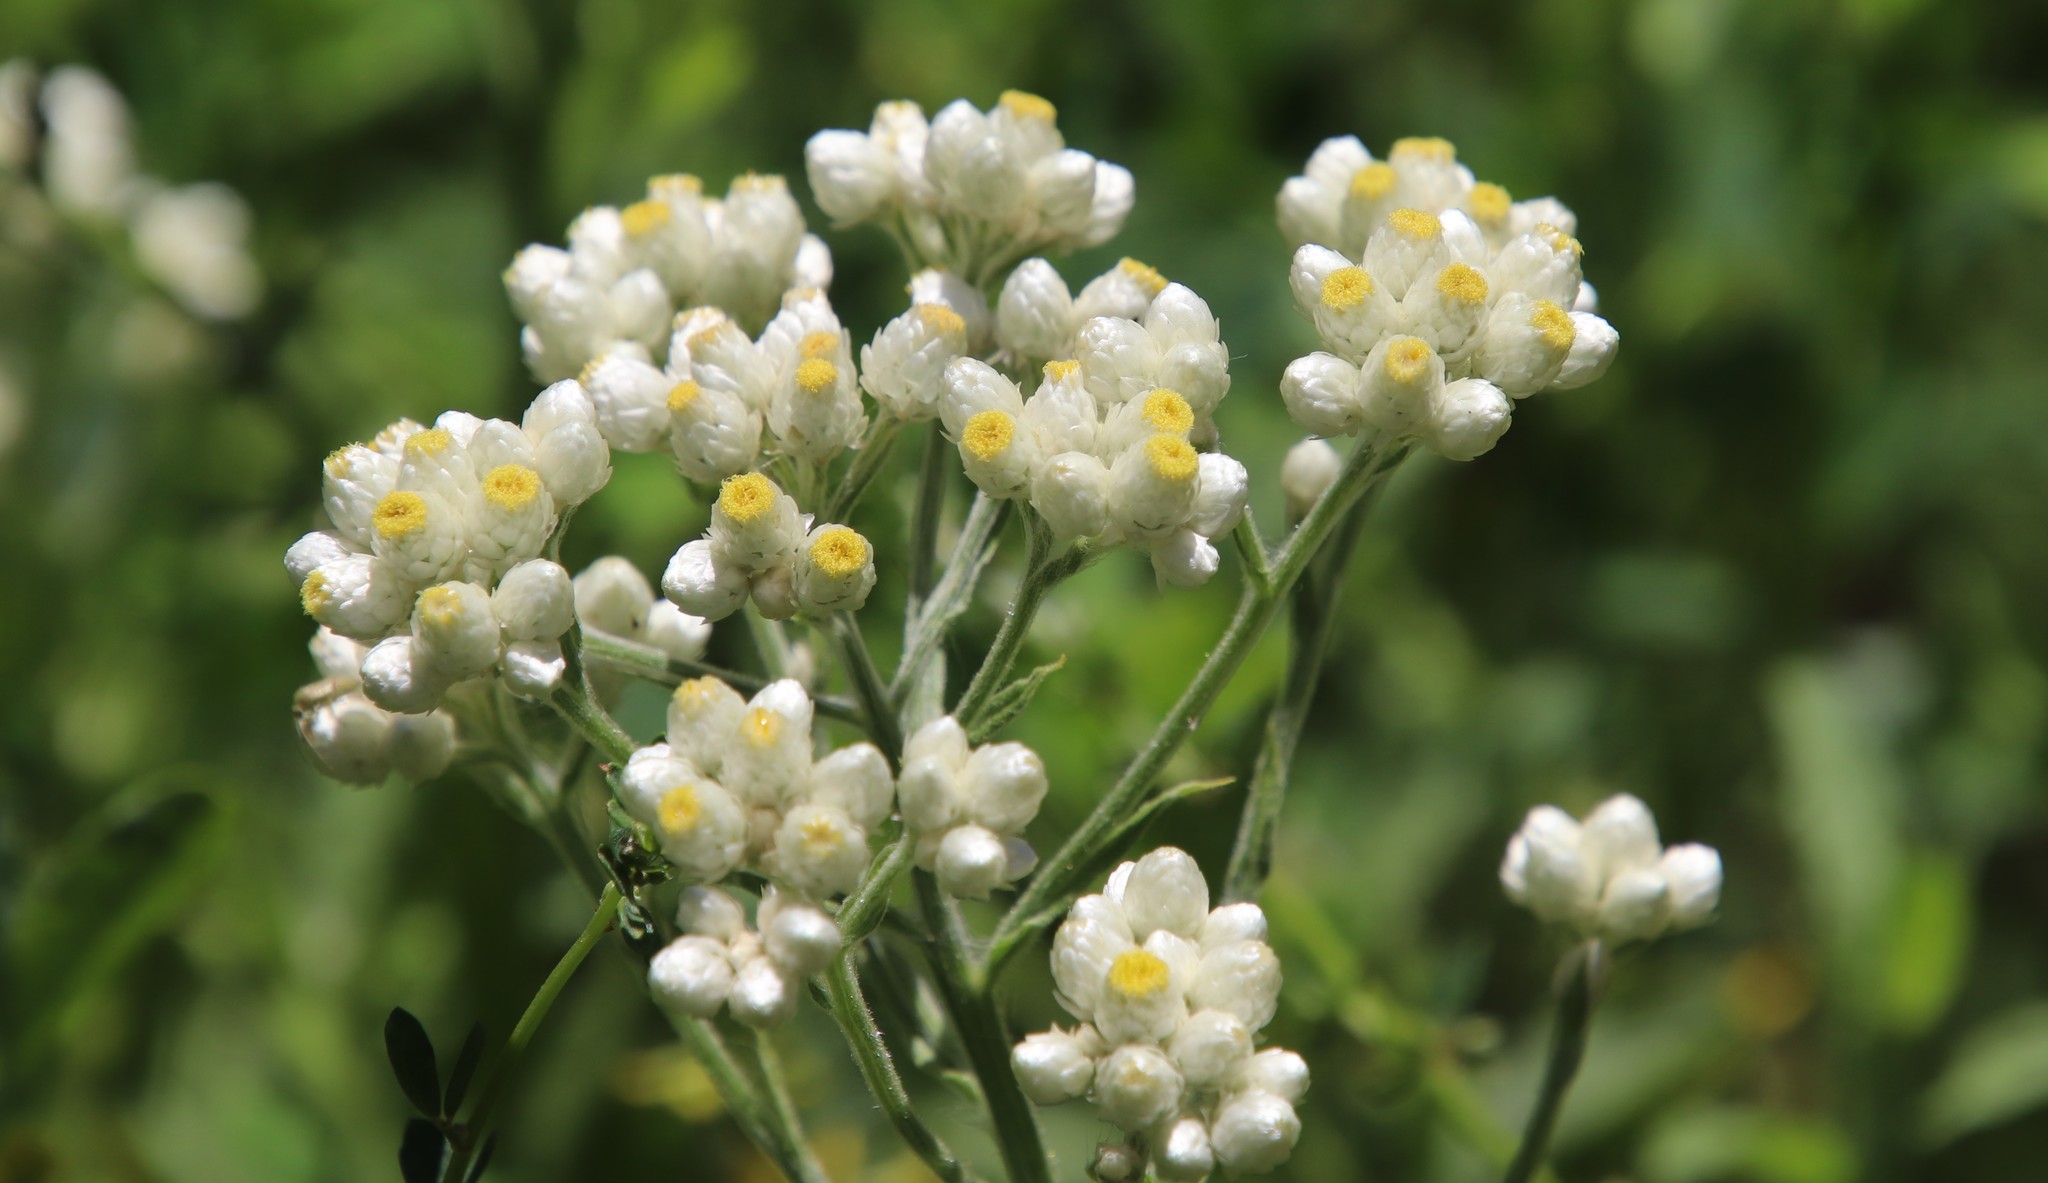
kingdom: Plantae
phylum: Tracheophyta
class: Magnoliopsida
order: Asterales
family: Asteraceae
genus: Pseudognaphalium
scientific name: Pseudognaphalium californicum
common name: California rabbit-tobacco
